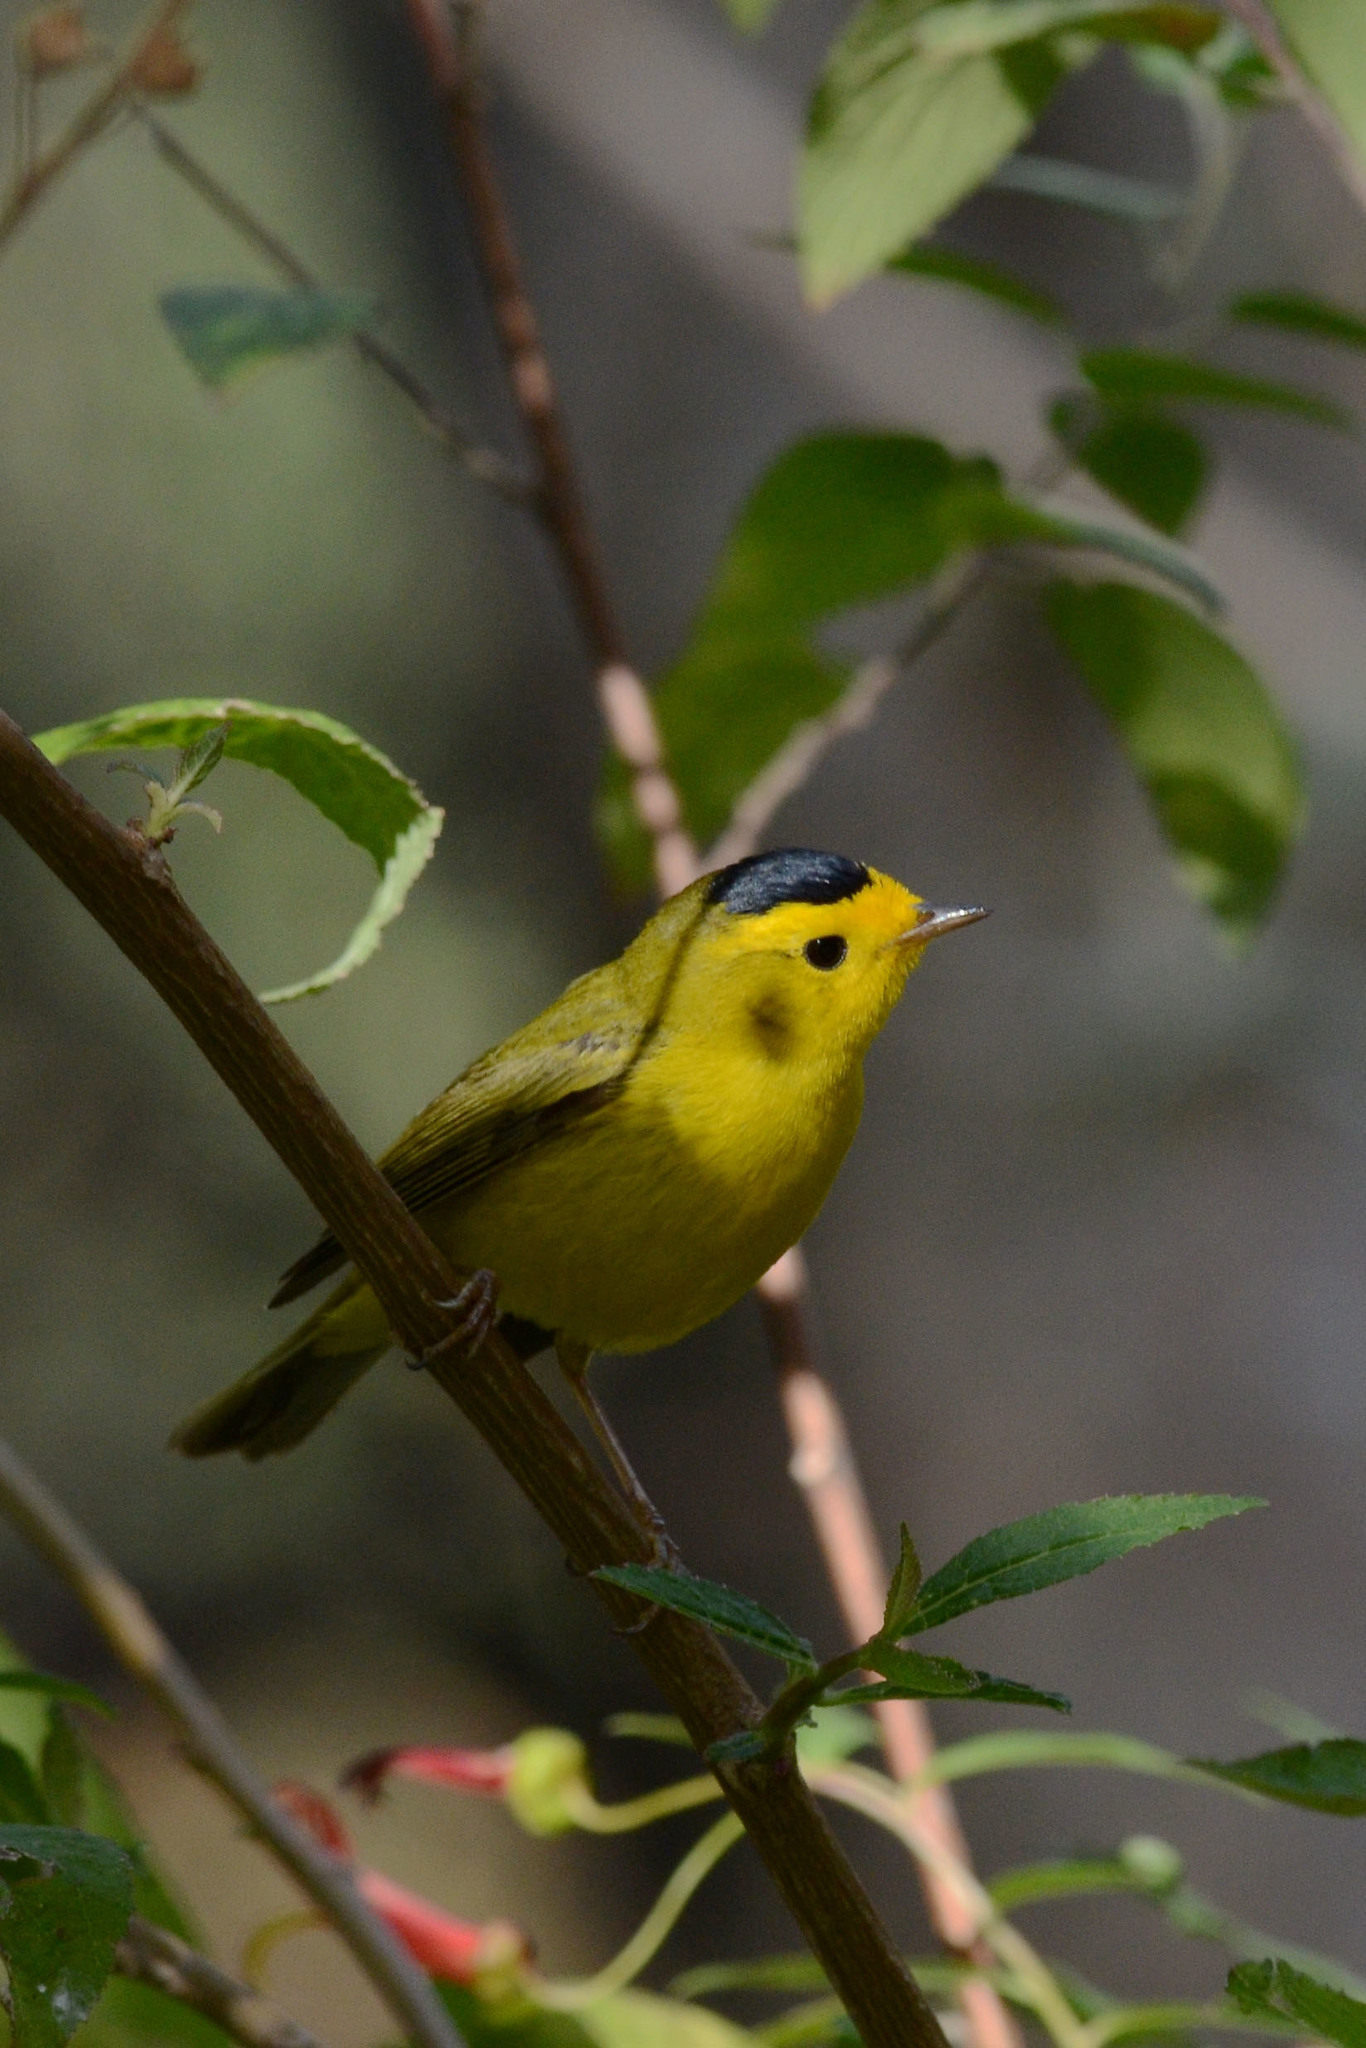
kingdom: Animalia
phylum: Chordata
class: Aves
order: Passeriformes
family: Parulidae
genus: Cardellina
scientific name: Cardellina pusilla
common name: Wilson's warbler
